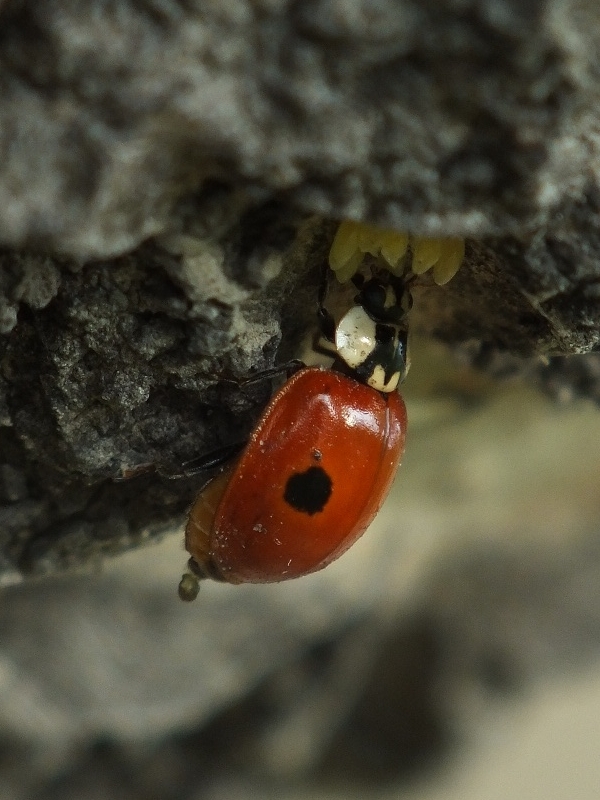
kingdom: Animalia
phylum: Arthropoda
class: Insecta
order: Coleoptera
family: Coccinellidae
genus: Adalia
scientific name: Adalia bipunctata
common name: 2-spot ladybird
